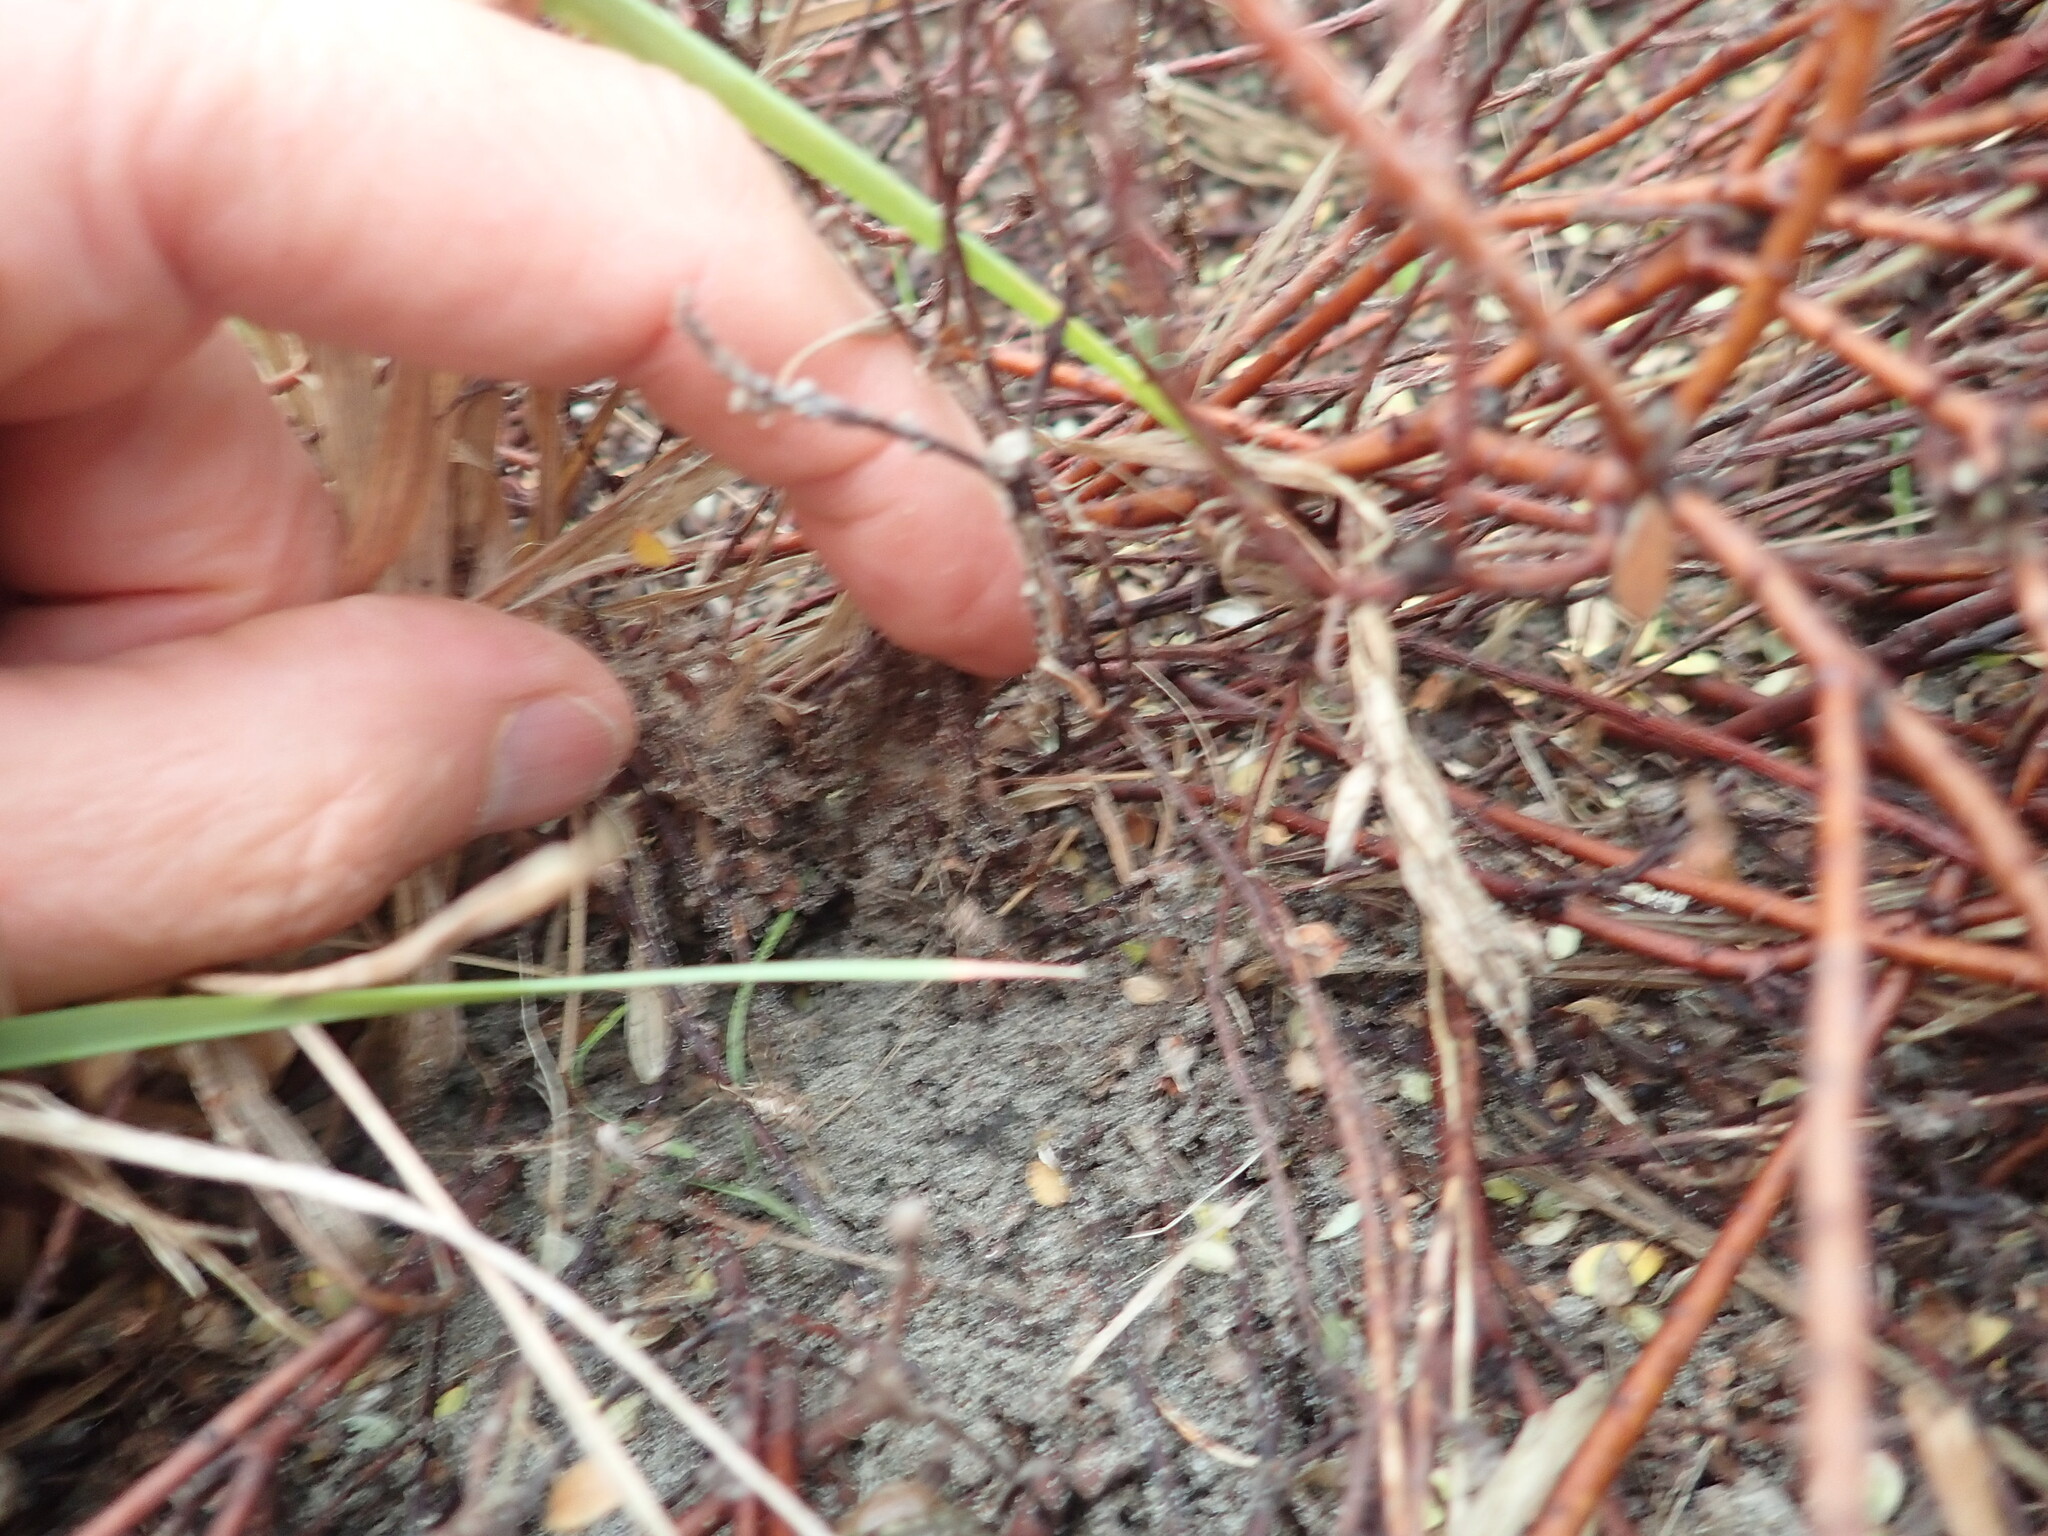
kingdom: Animalia
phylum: Arthropoda
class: Arachnida
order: Araneae
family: Theridiidae
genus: Latrodectus
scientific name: Latrodectus katipo
